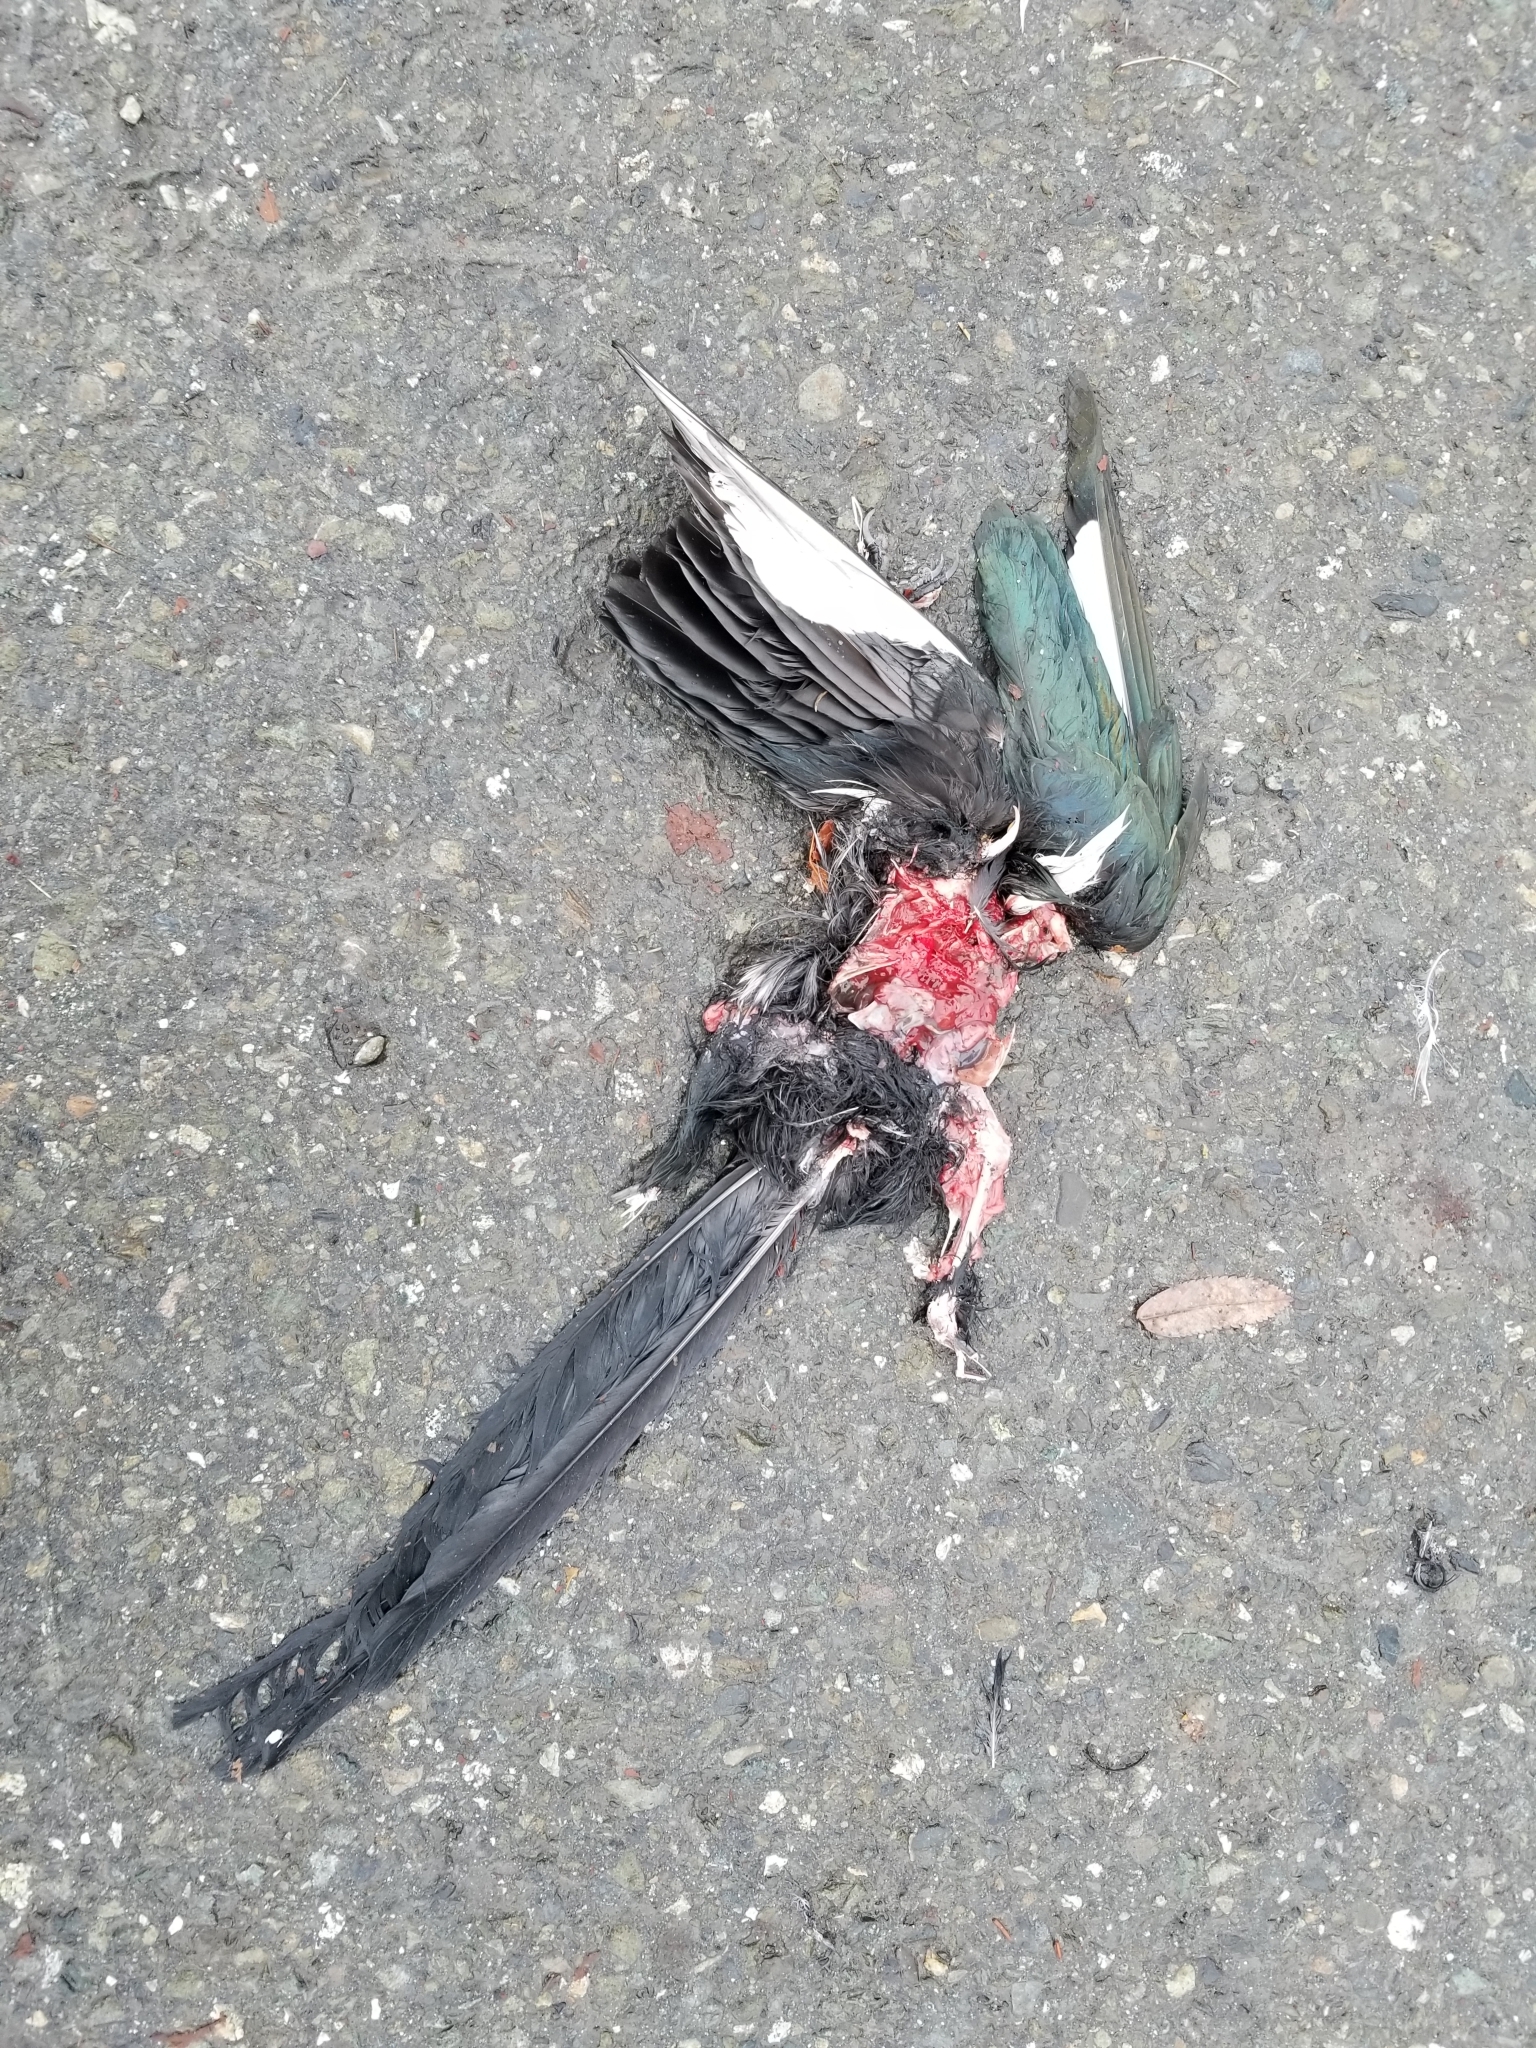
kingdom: Animalia
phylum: Chordata
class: Aves
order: Passeriformes
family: Corvidae
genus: Pica
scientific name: Pica hudsonia
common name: Black-billed magpie
